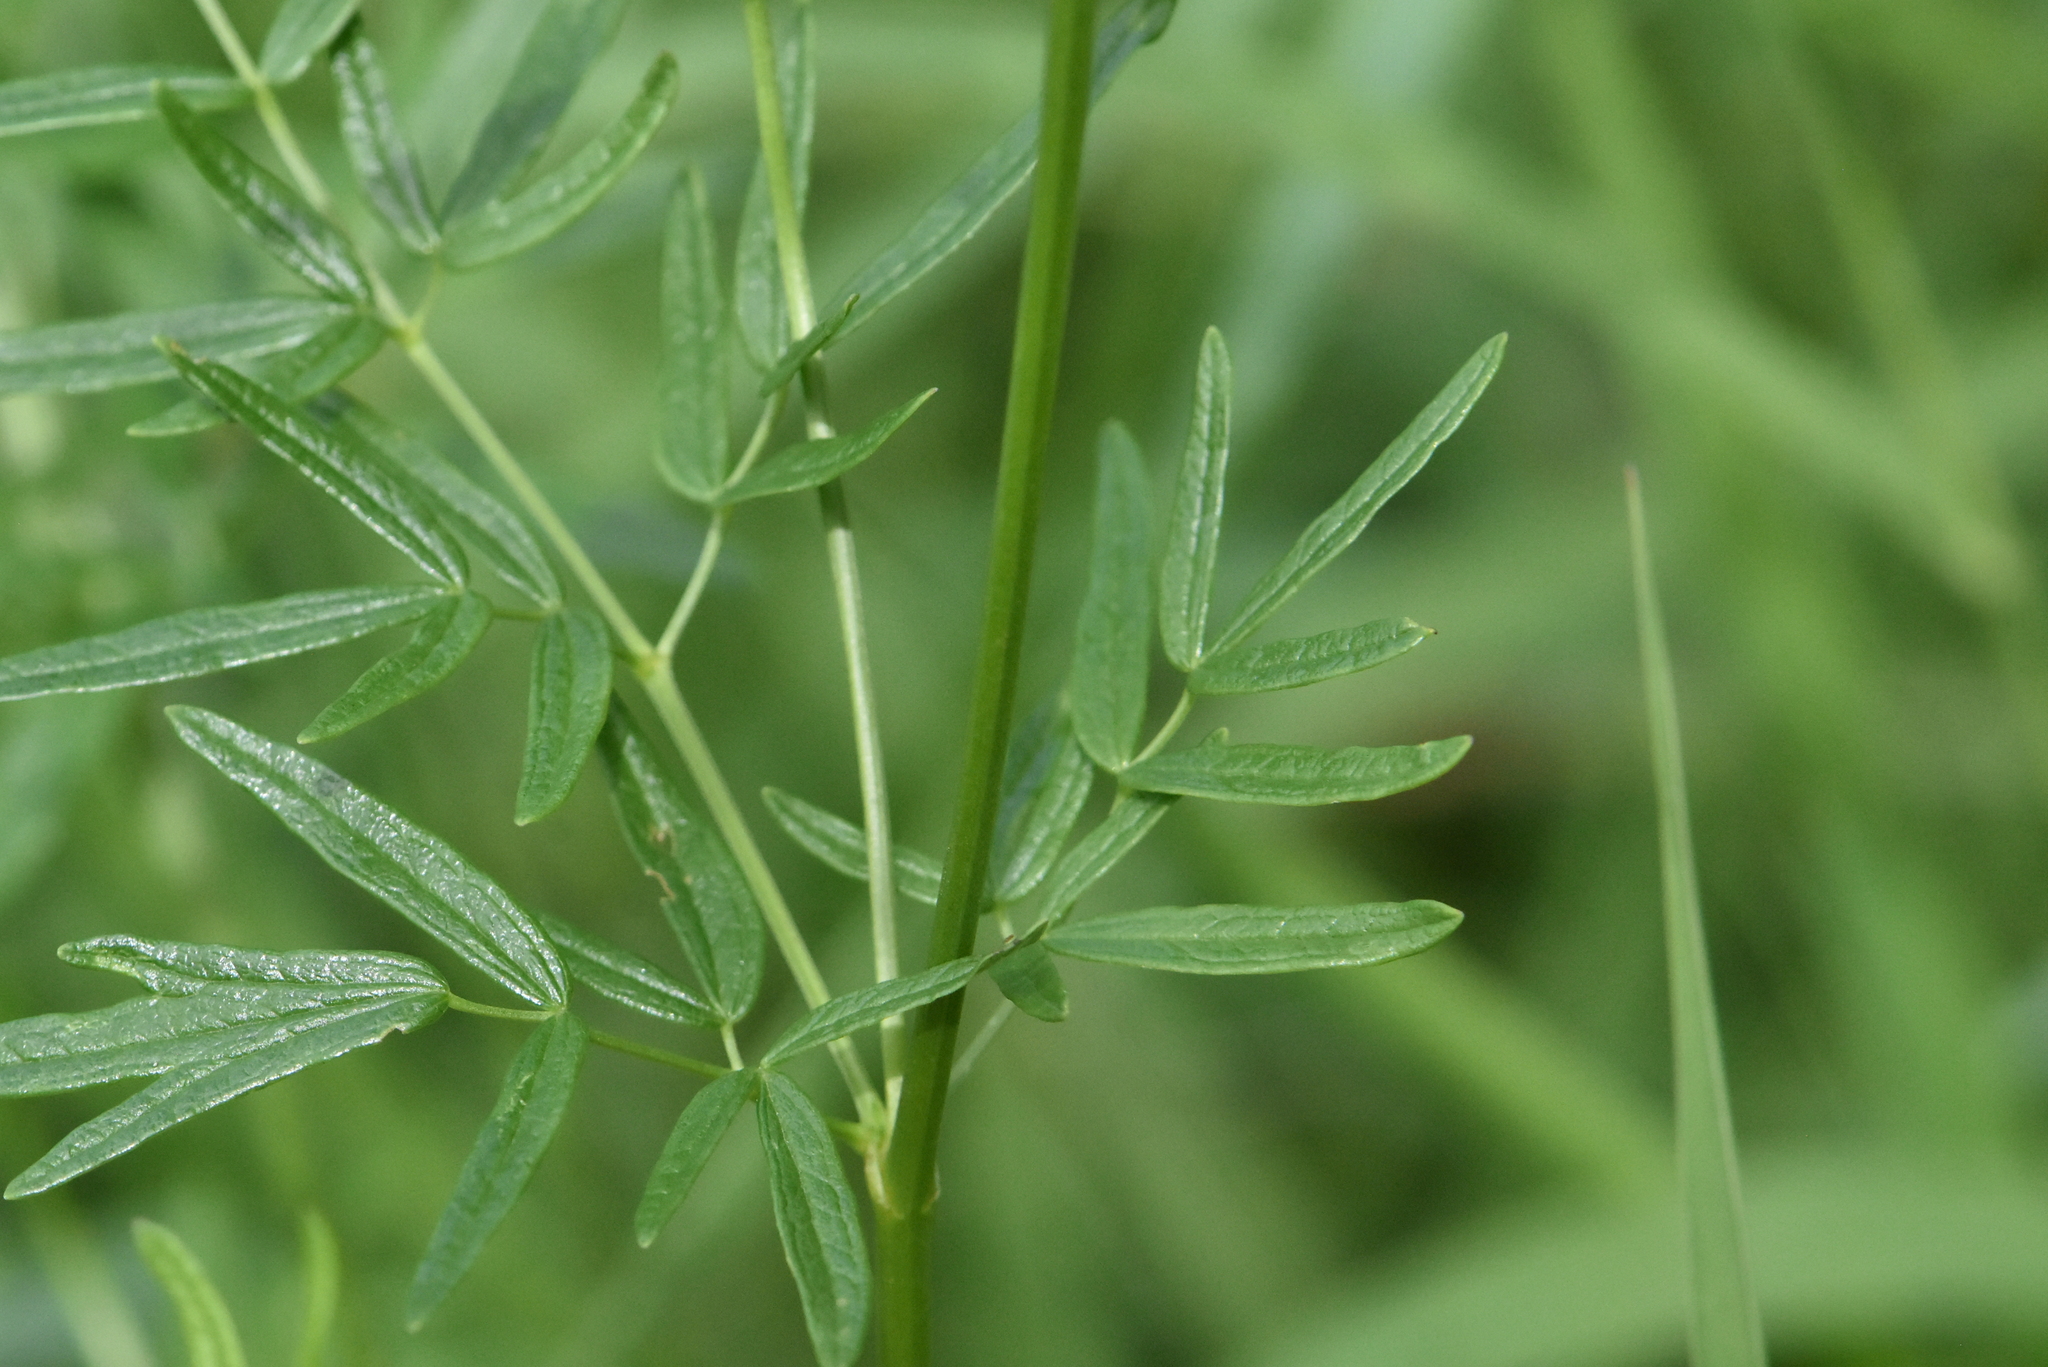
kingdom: Plantae
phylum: Tracheophyta
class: Magnoliopsida
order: Ranunculales
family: Ranunculaceae
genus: Thalictrum
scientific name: Thalictrum lucidum
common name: Shining meadow-rue
